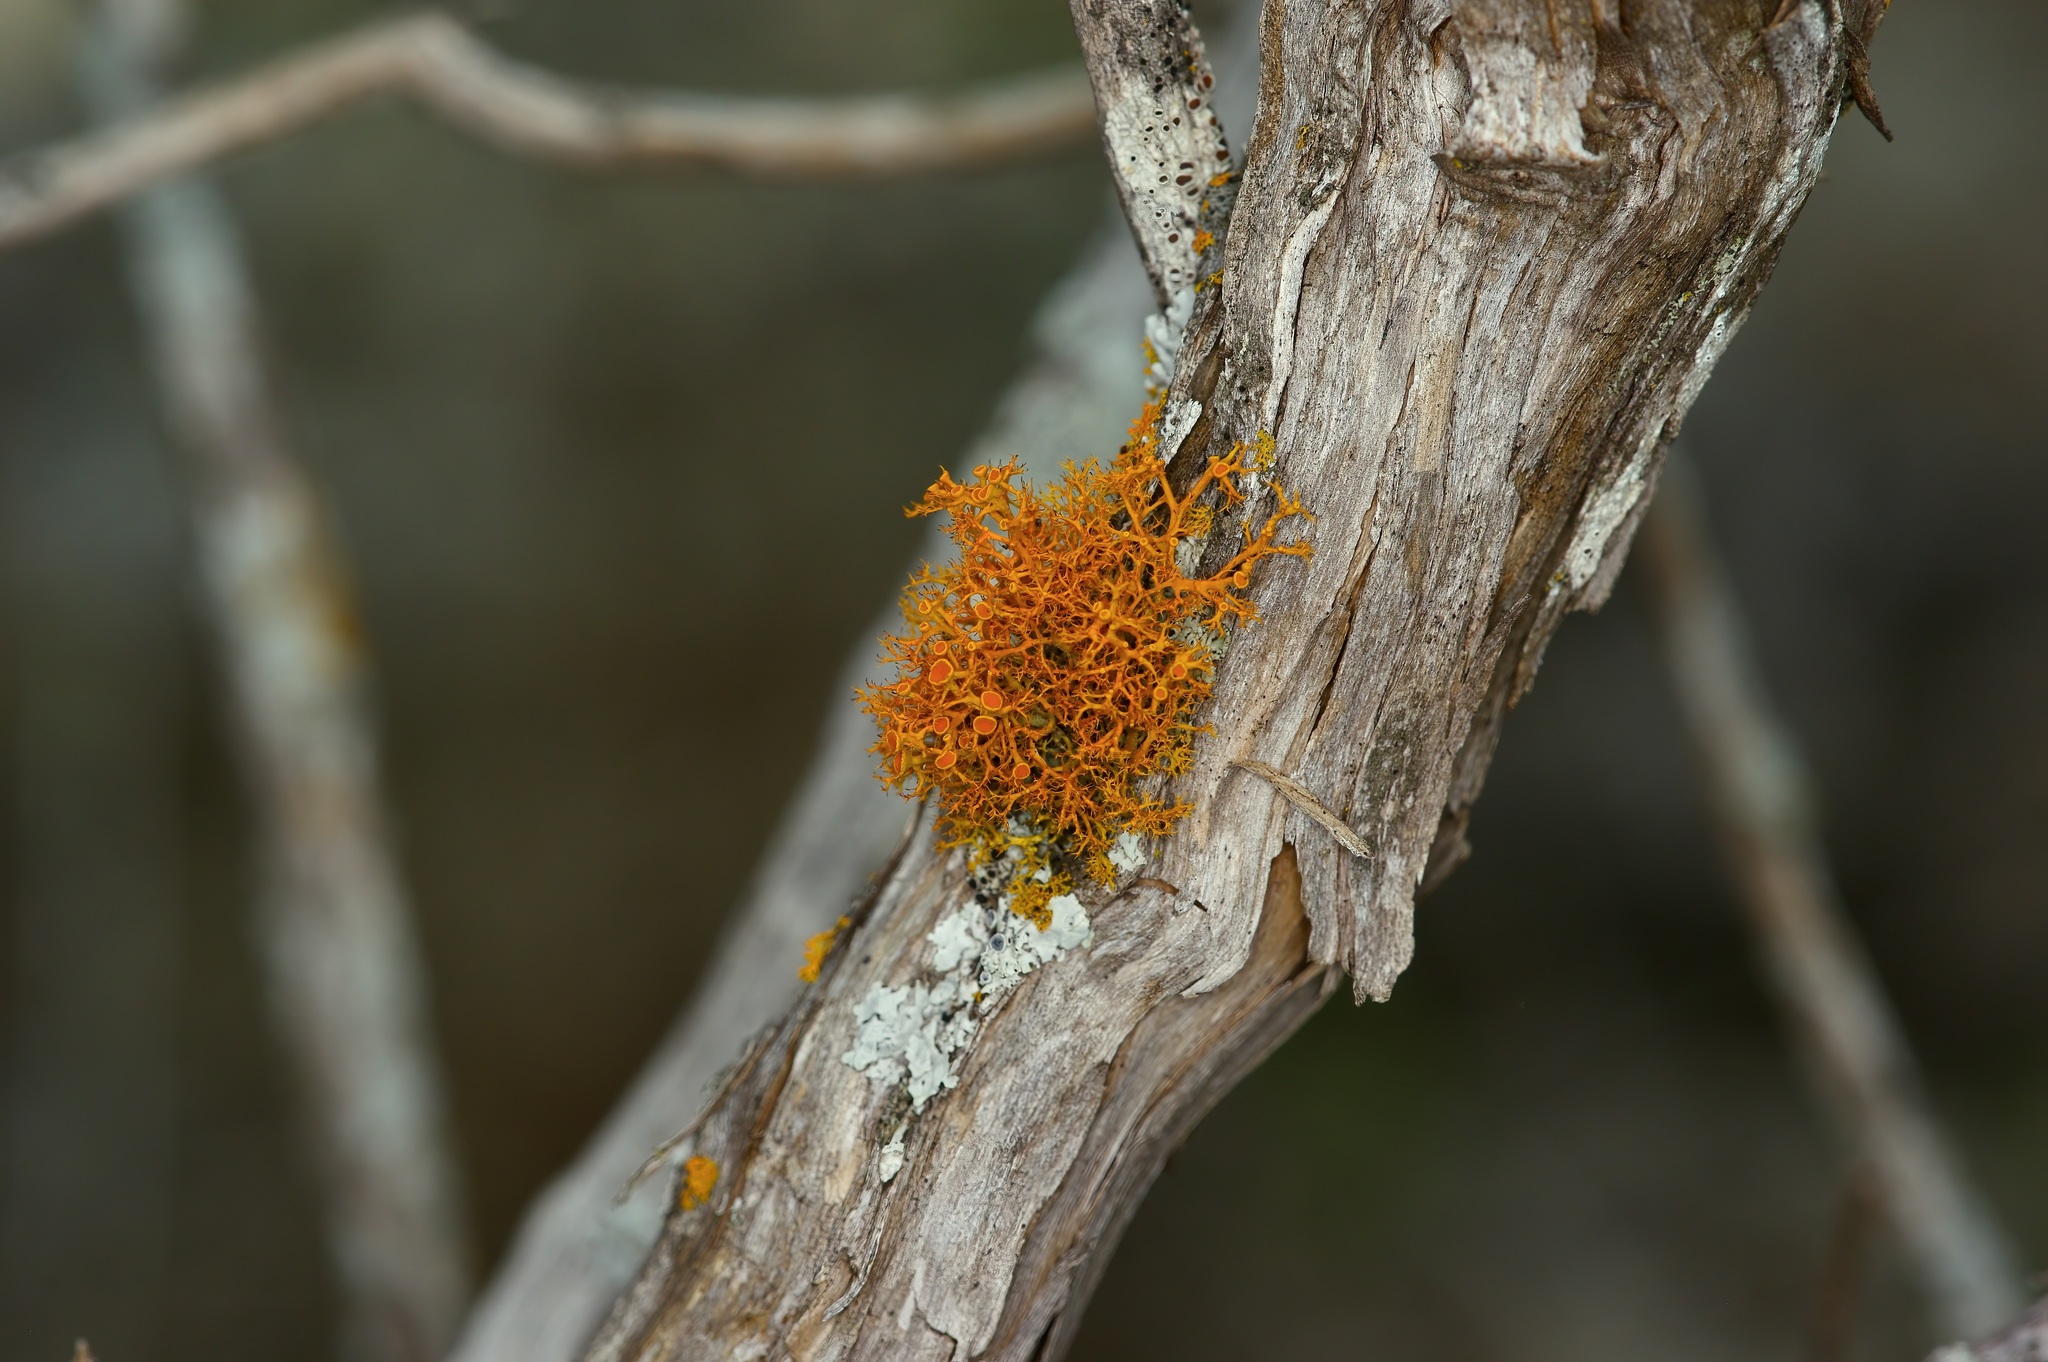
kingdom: Fungi
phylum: Ascomycota
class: Lecanoromycetes
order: Teloschistales
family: Teloschistaceae
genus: Teloschistes
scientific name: Teloschistes exilis
